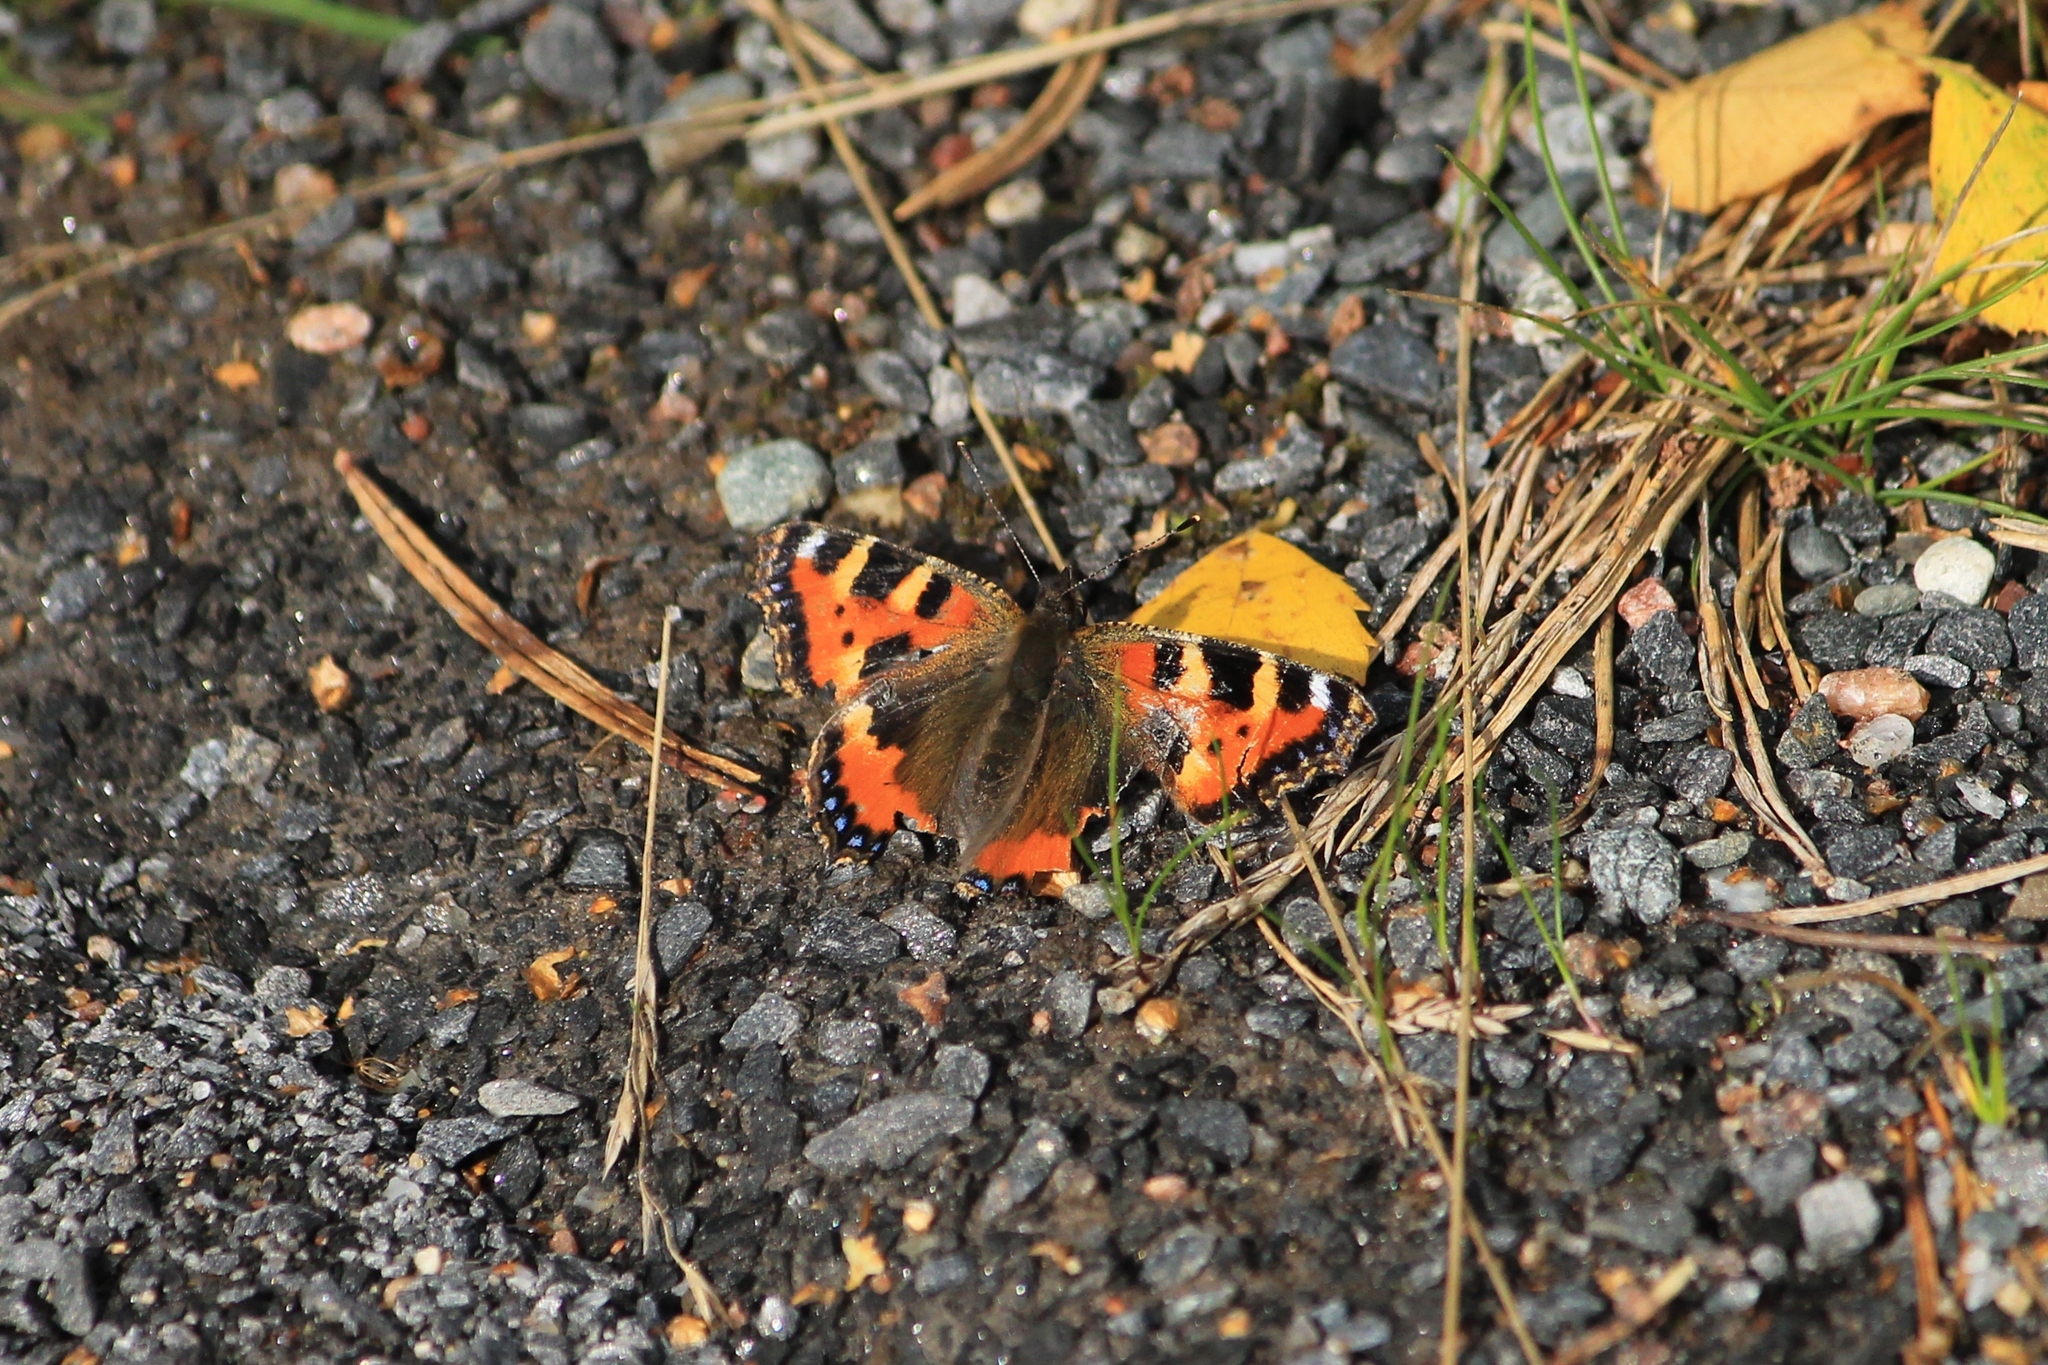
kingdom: Animalia
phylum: Arthropoda
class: Insecta
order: Lepidoptera
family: Nymphalidae
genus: Aglais
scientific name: Aglais urticae
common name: Small tortoiseshell
